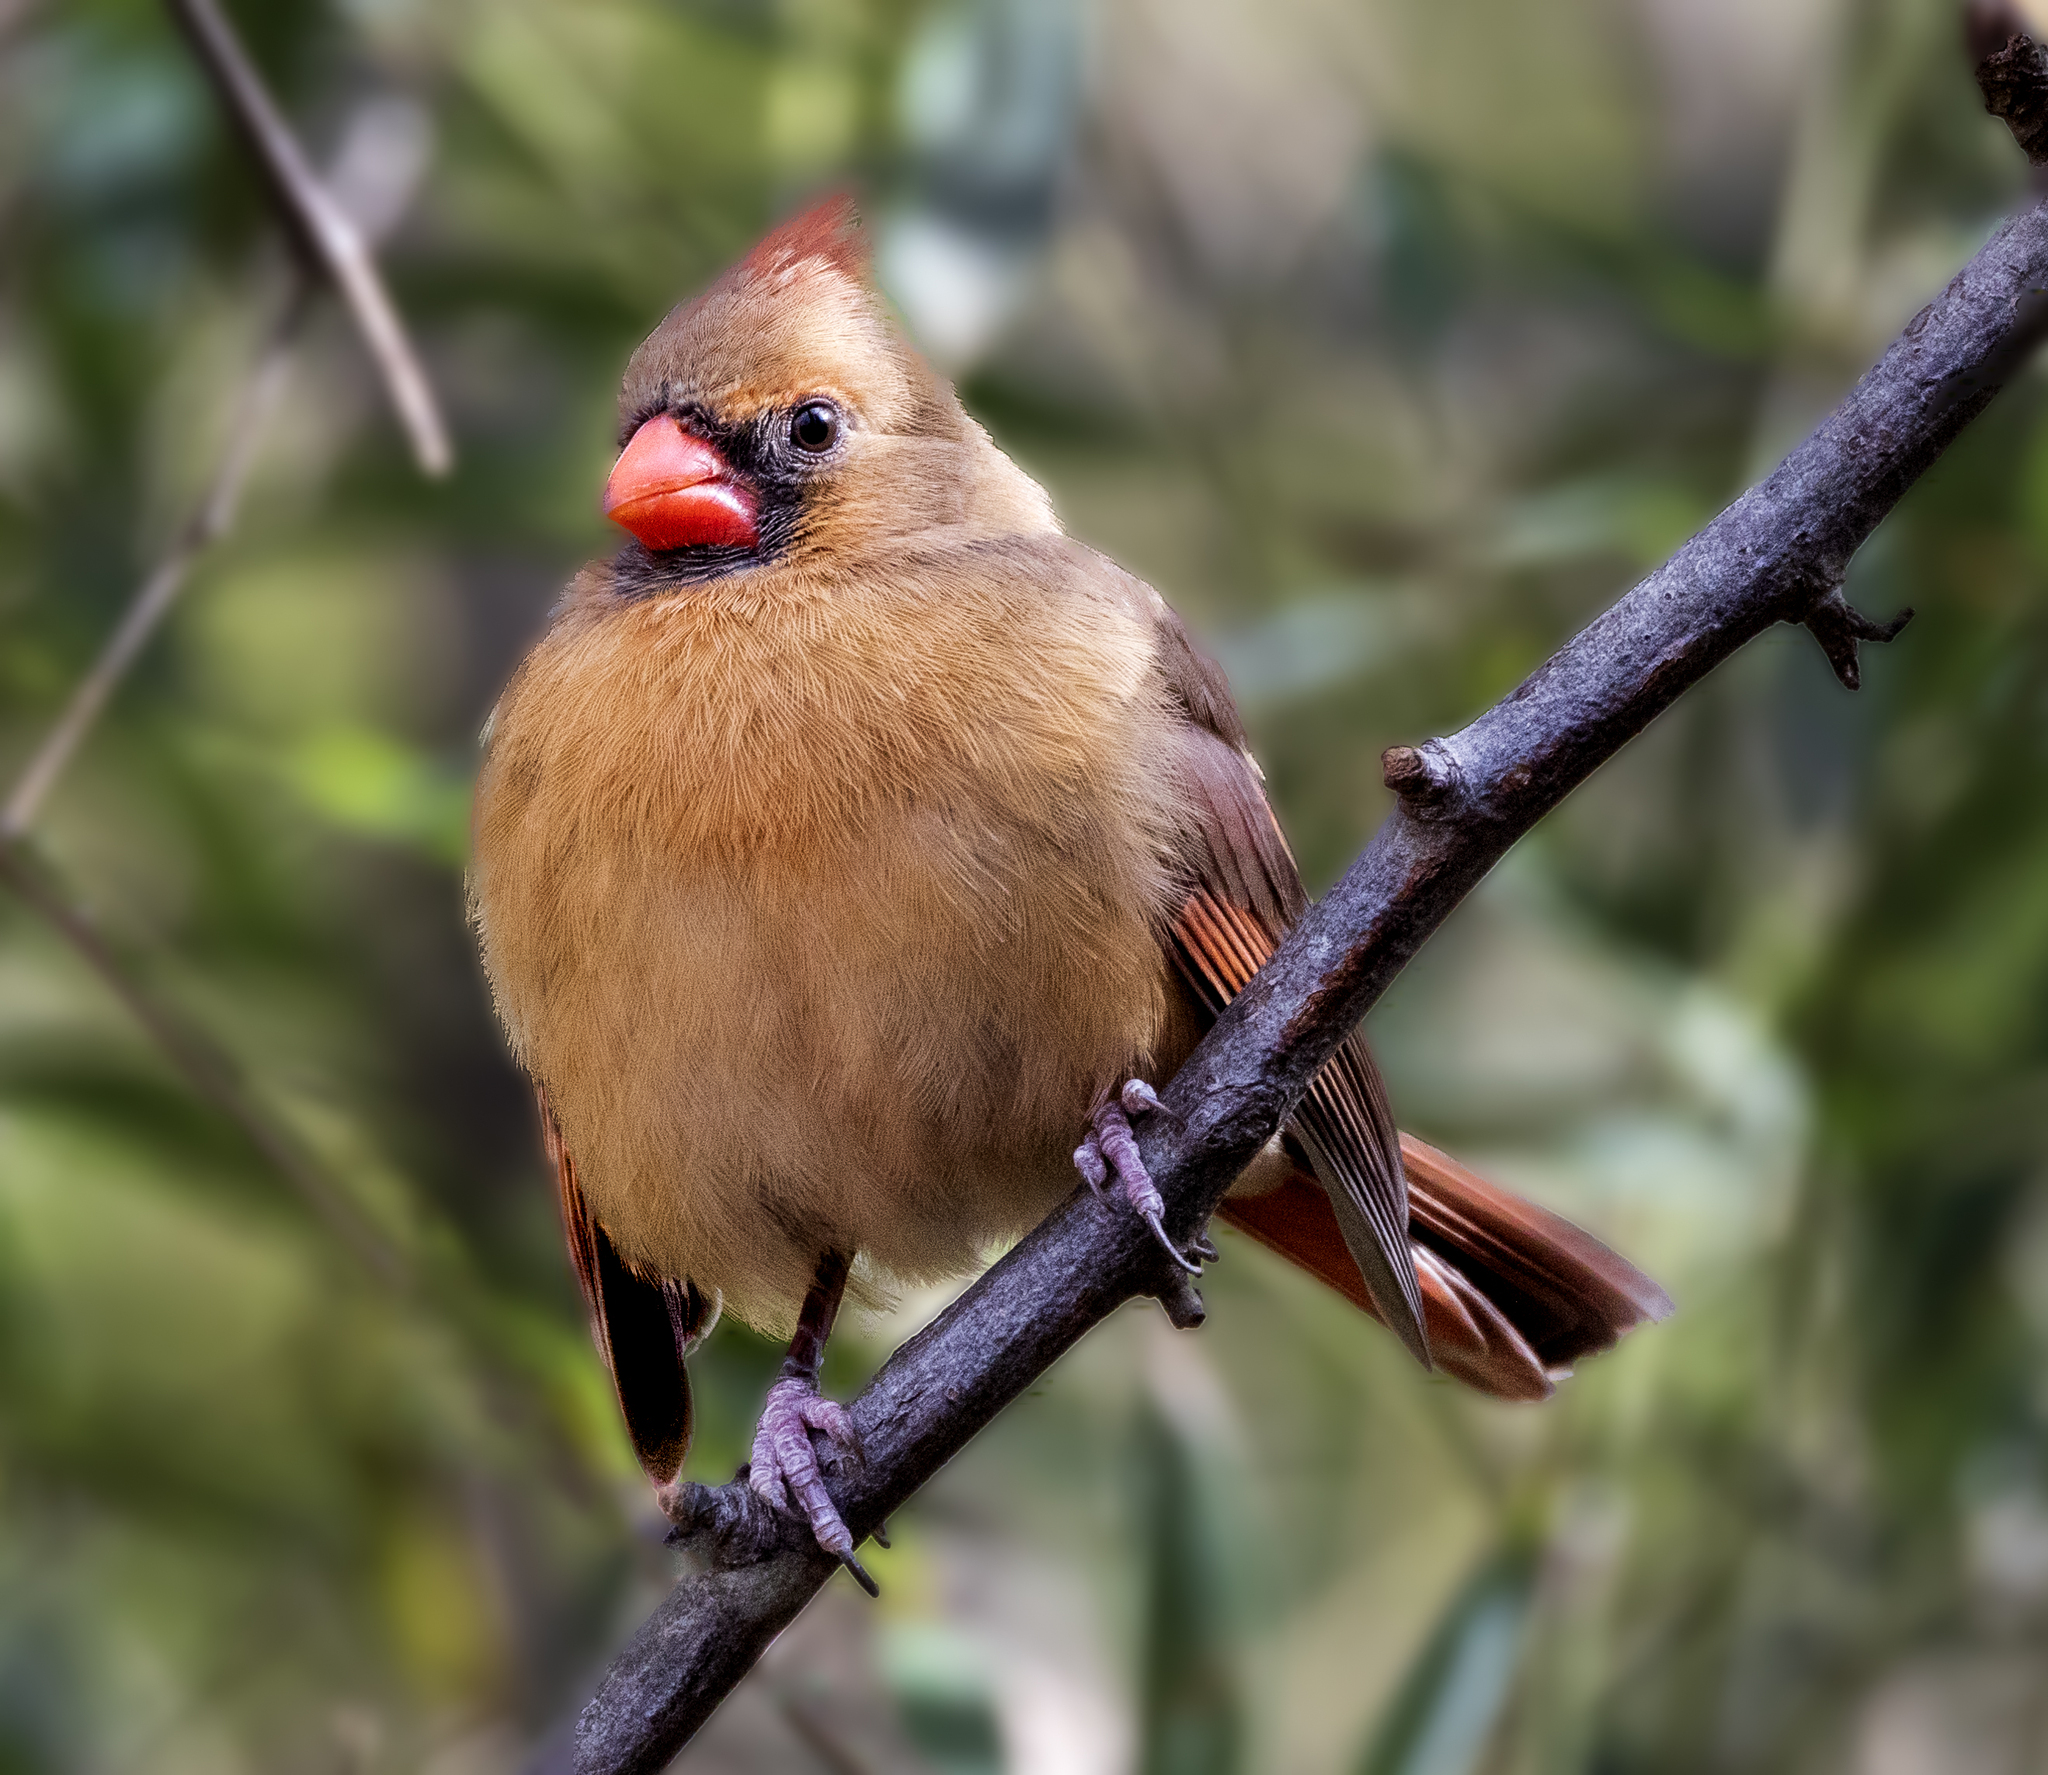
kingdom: Animalia
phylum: Chordata
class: Aves
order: Passeriformes
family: Cardinalidae
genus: Cardinalis
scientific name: Cardinalis cardinalis
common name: Northern cardinal
